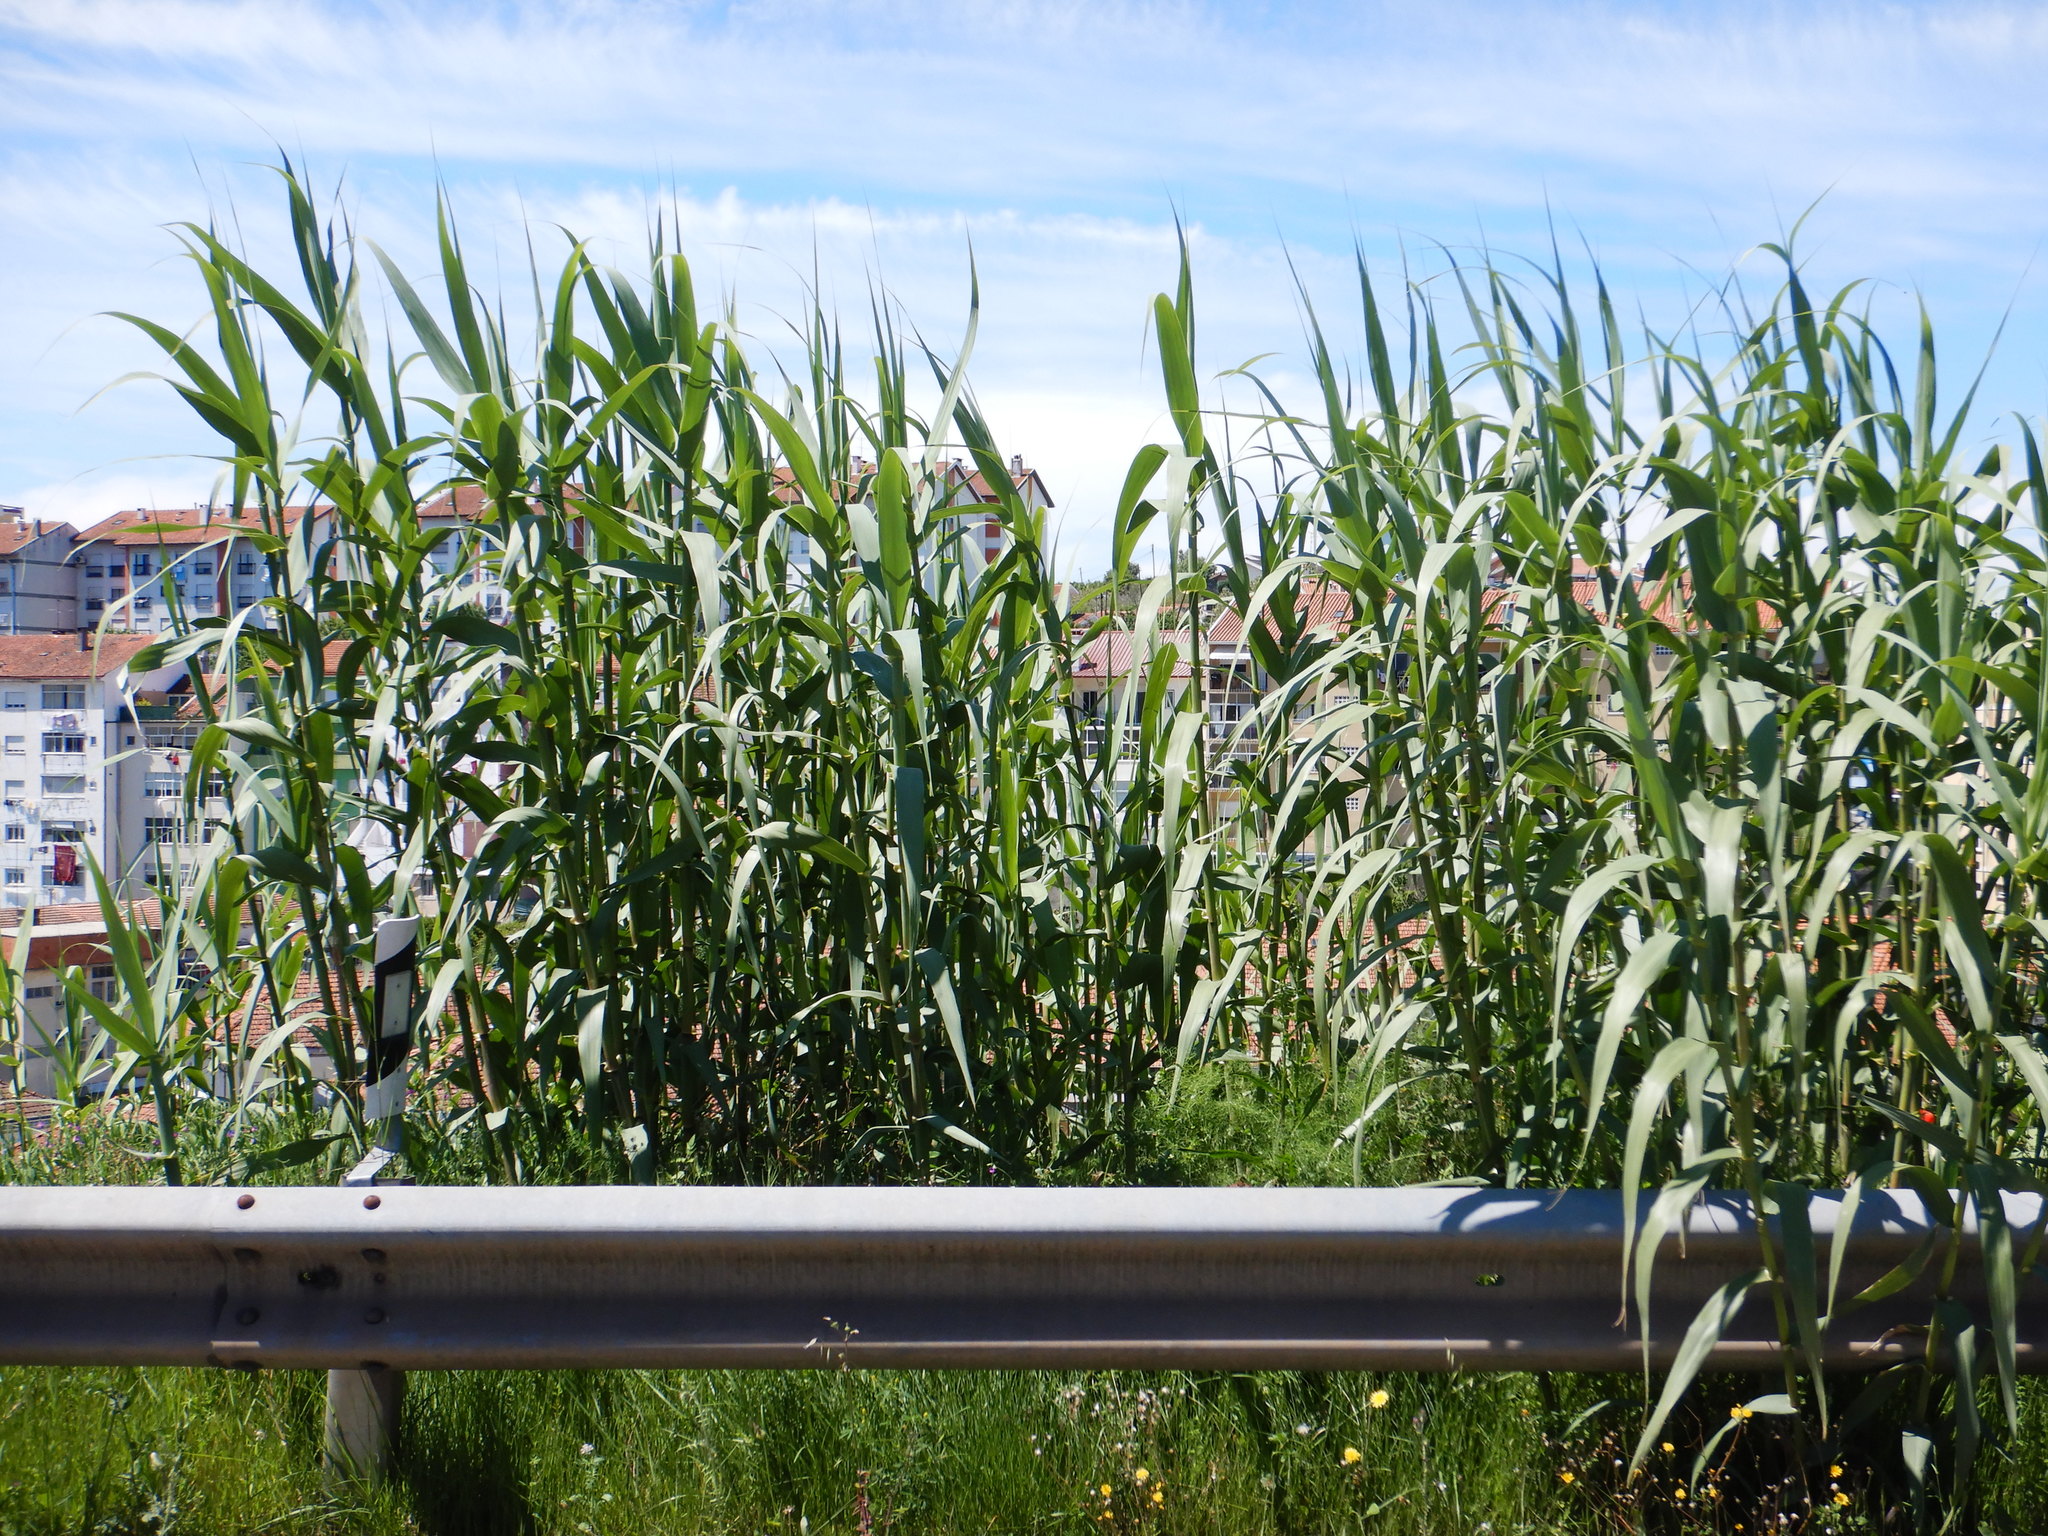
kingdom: Plantae
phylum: Tracheophyta
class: Liliopsida
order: Poales
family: Poaceae
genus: Arundo
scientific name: Arundo donax
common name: Giant reed
